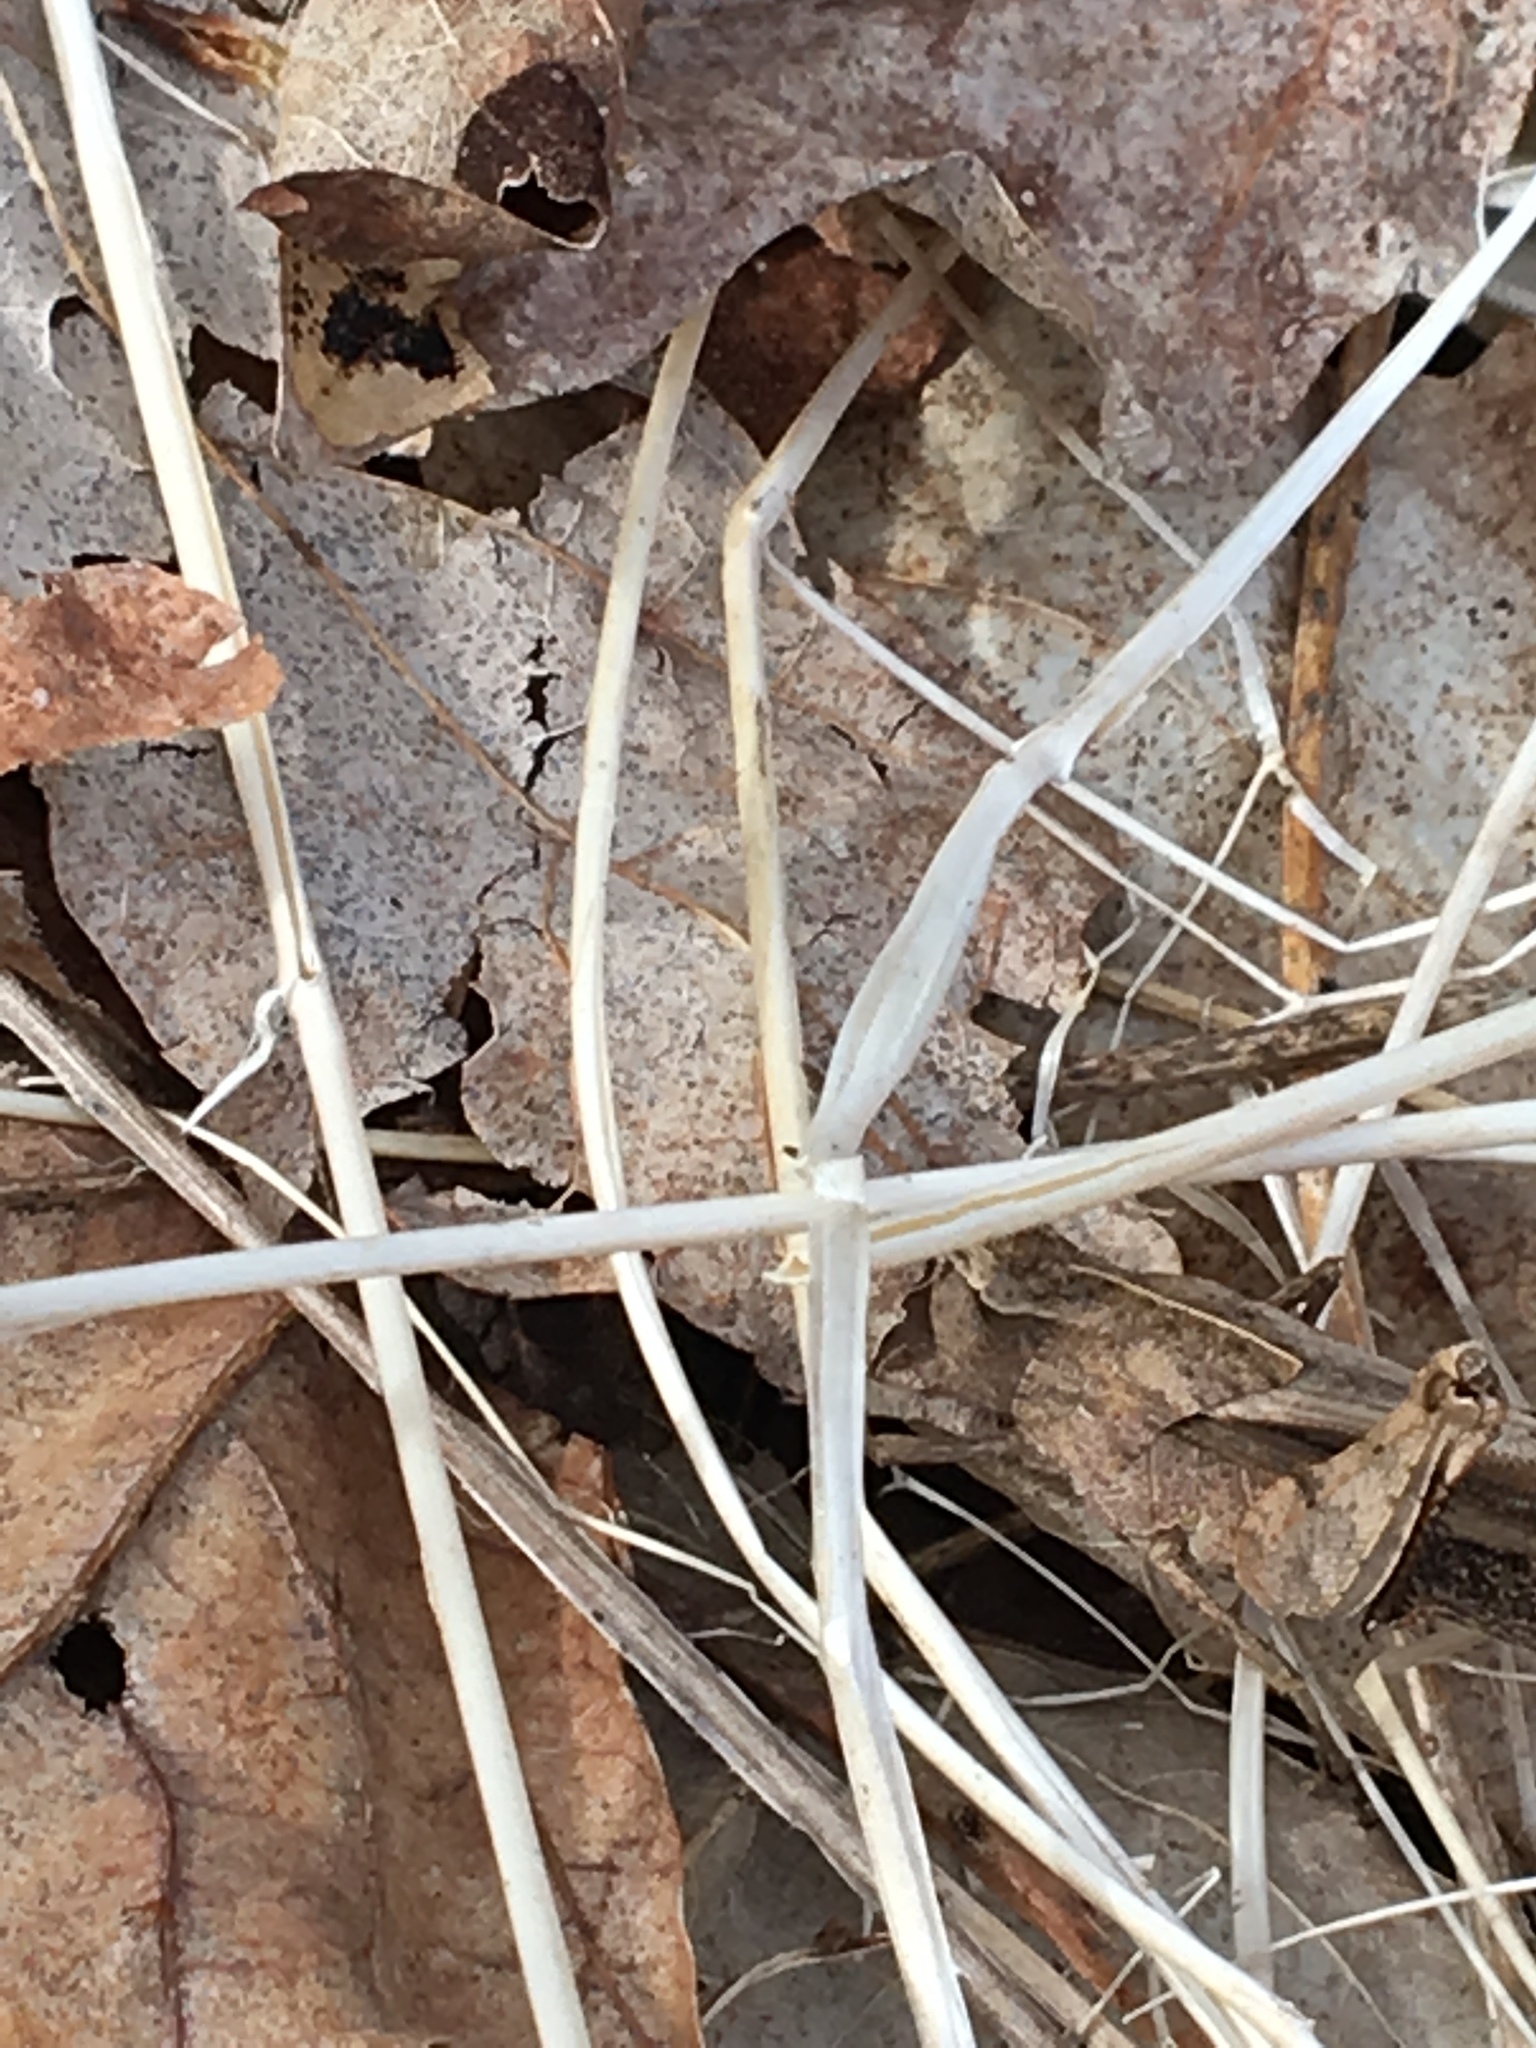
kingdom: Animalia
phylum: Arthropoda
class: Insecta
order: Orthoptera
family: Acrididae
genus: Chortophaga
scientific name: Chortophaga viridifasciata
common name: Green-striped grasshopper
